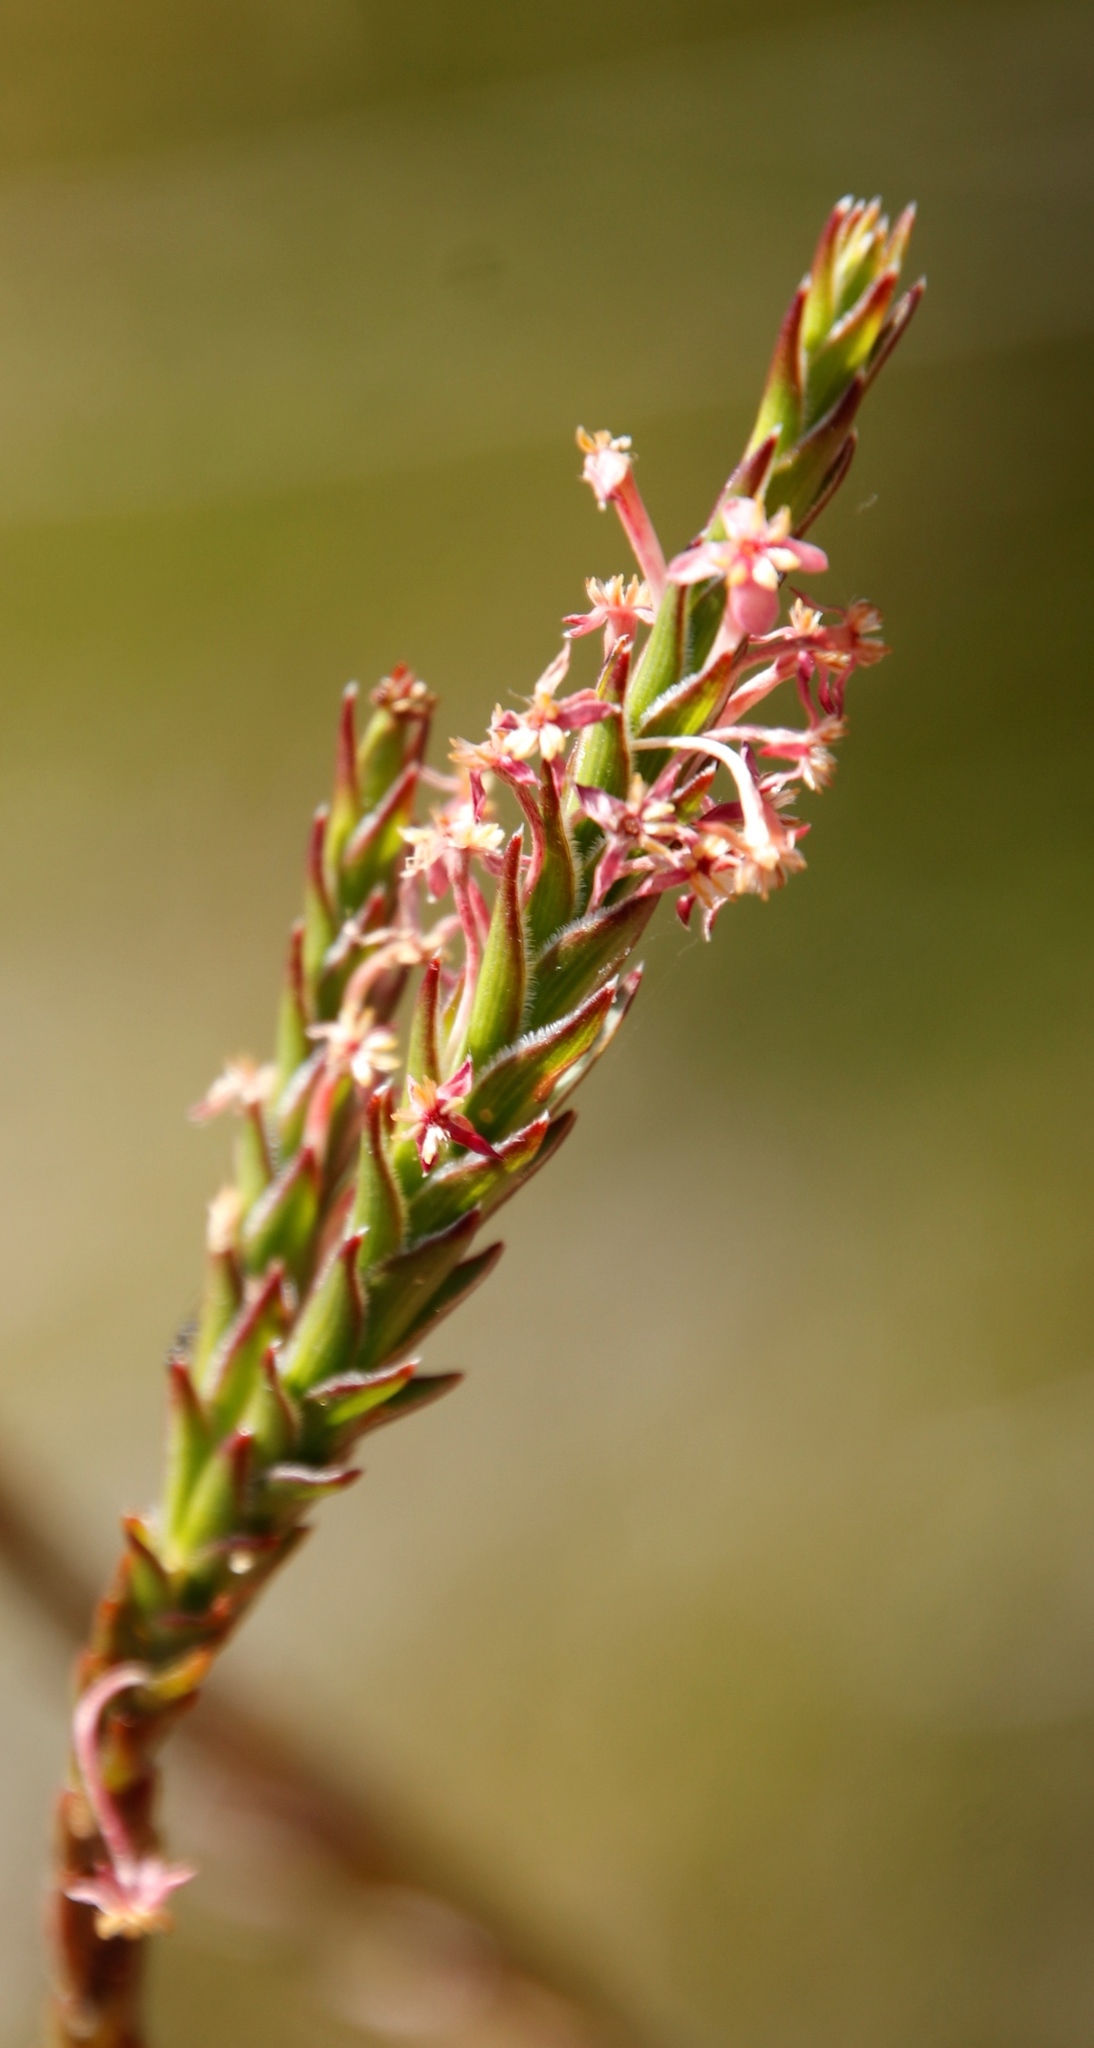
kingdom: Plantae
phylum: Tracheophyta
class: Magnoliopsida
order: Malvales
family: Thymelaeaceae
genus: Struthiola
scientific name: Struthiola ciliata
